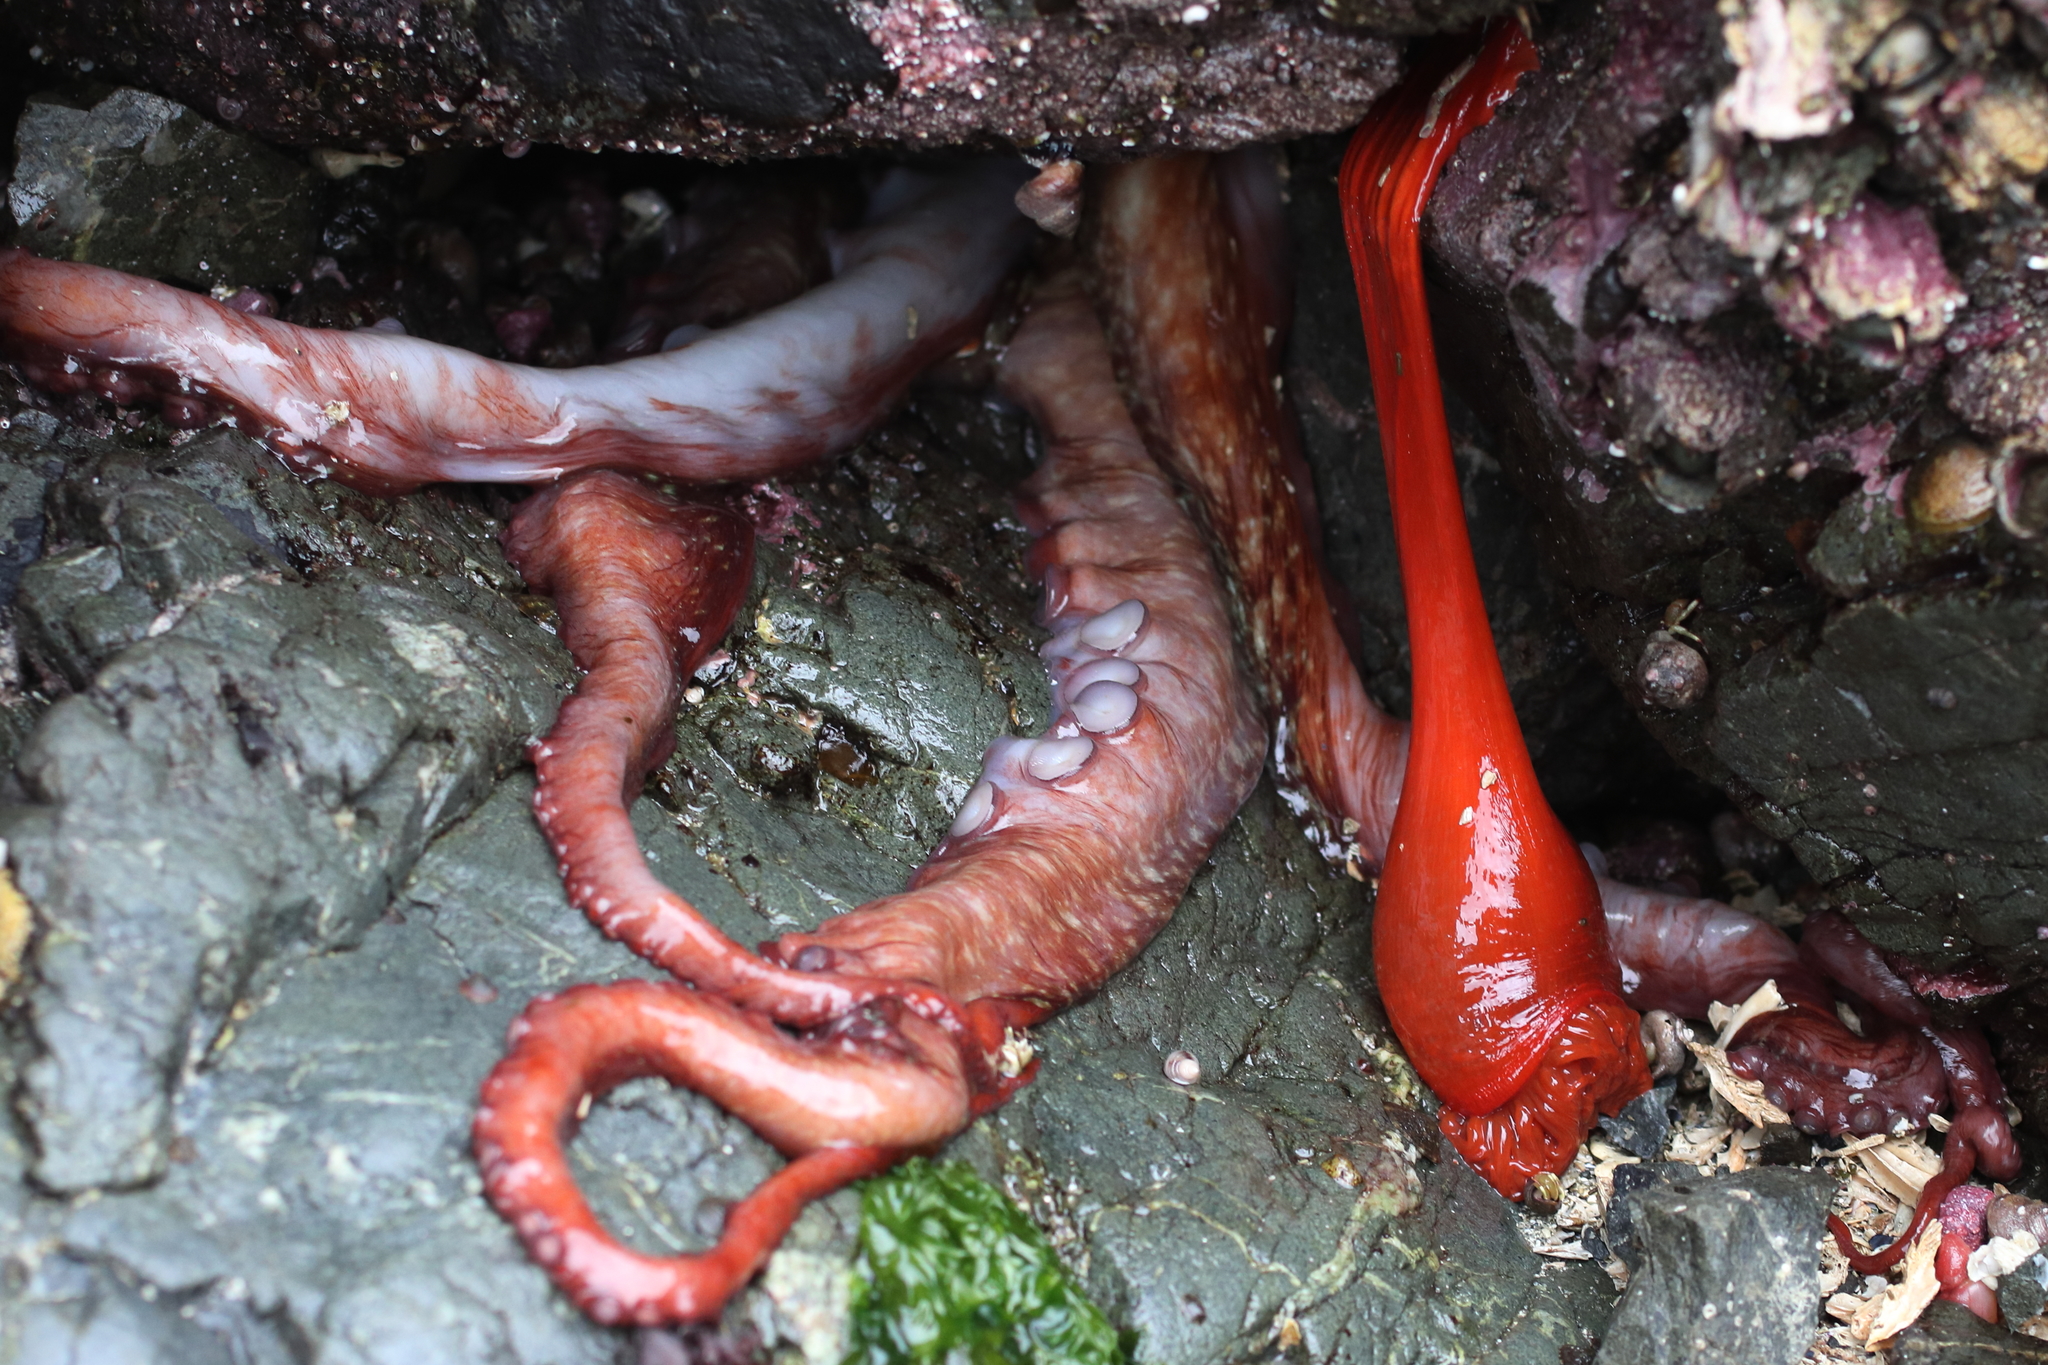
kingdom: Animalia
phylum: Mollusca
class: Cephalopoda
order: Octopoda
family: Enteroctopodidae
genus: Enteroctopus
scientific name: Enteroctopus dofleini
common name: Giant north pacific octopus
